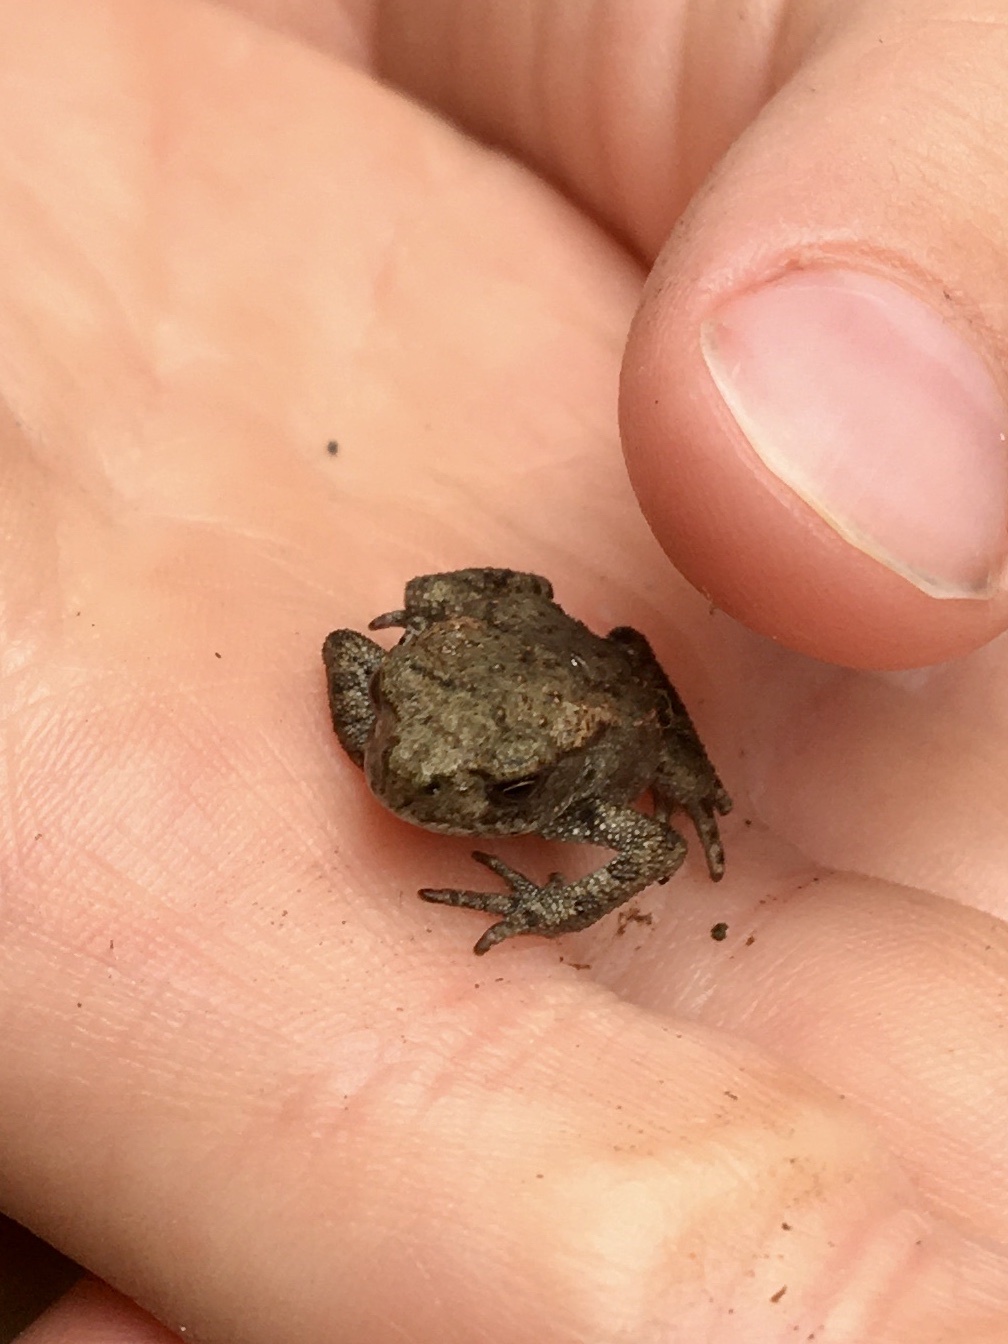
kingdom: Animalia
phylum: Chordata
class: Amphibia
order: Anura
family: Bufonidae
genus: Bufo
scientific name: Bufo bufo
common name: Common toad
